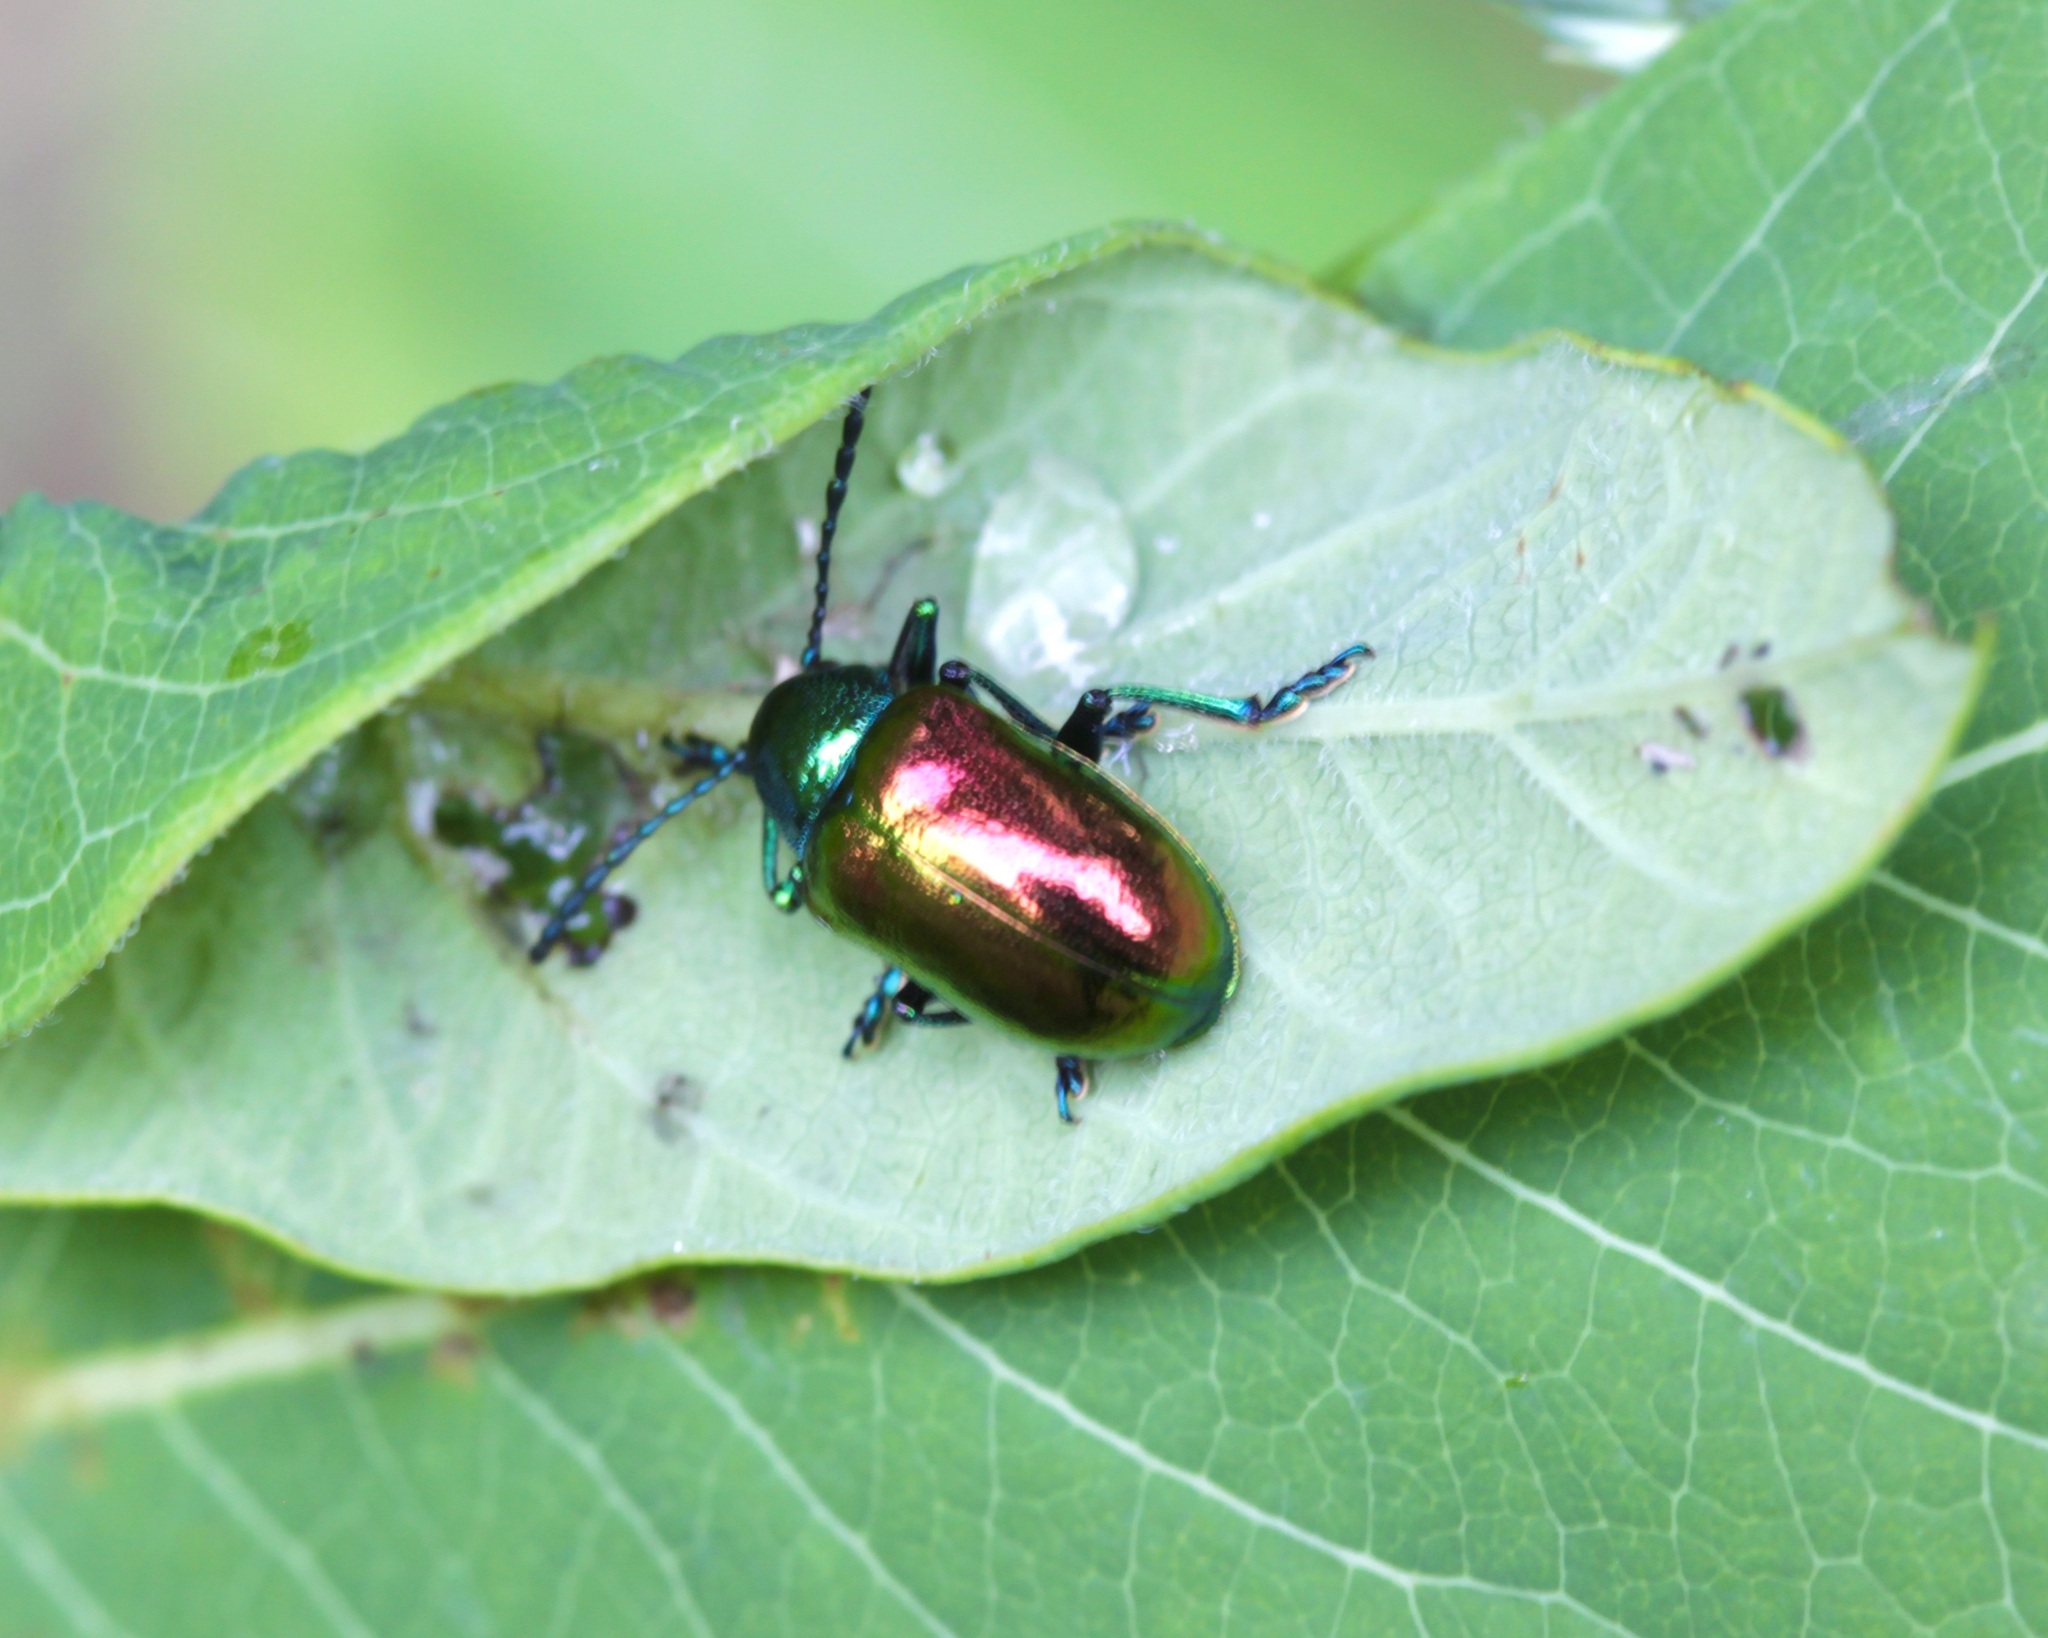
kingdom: Animalia
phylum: Arthropoda
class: Insecta
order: Coleoptera
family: Chrysomelidae
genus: Chrysochus
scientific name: Chrysochus auratus
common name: Dogbane leaf beetle
